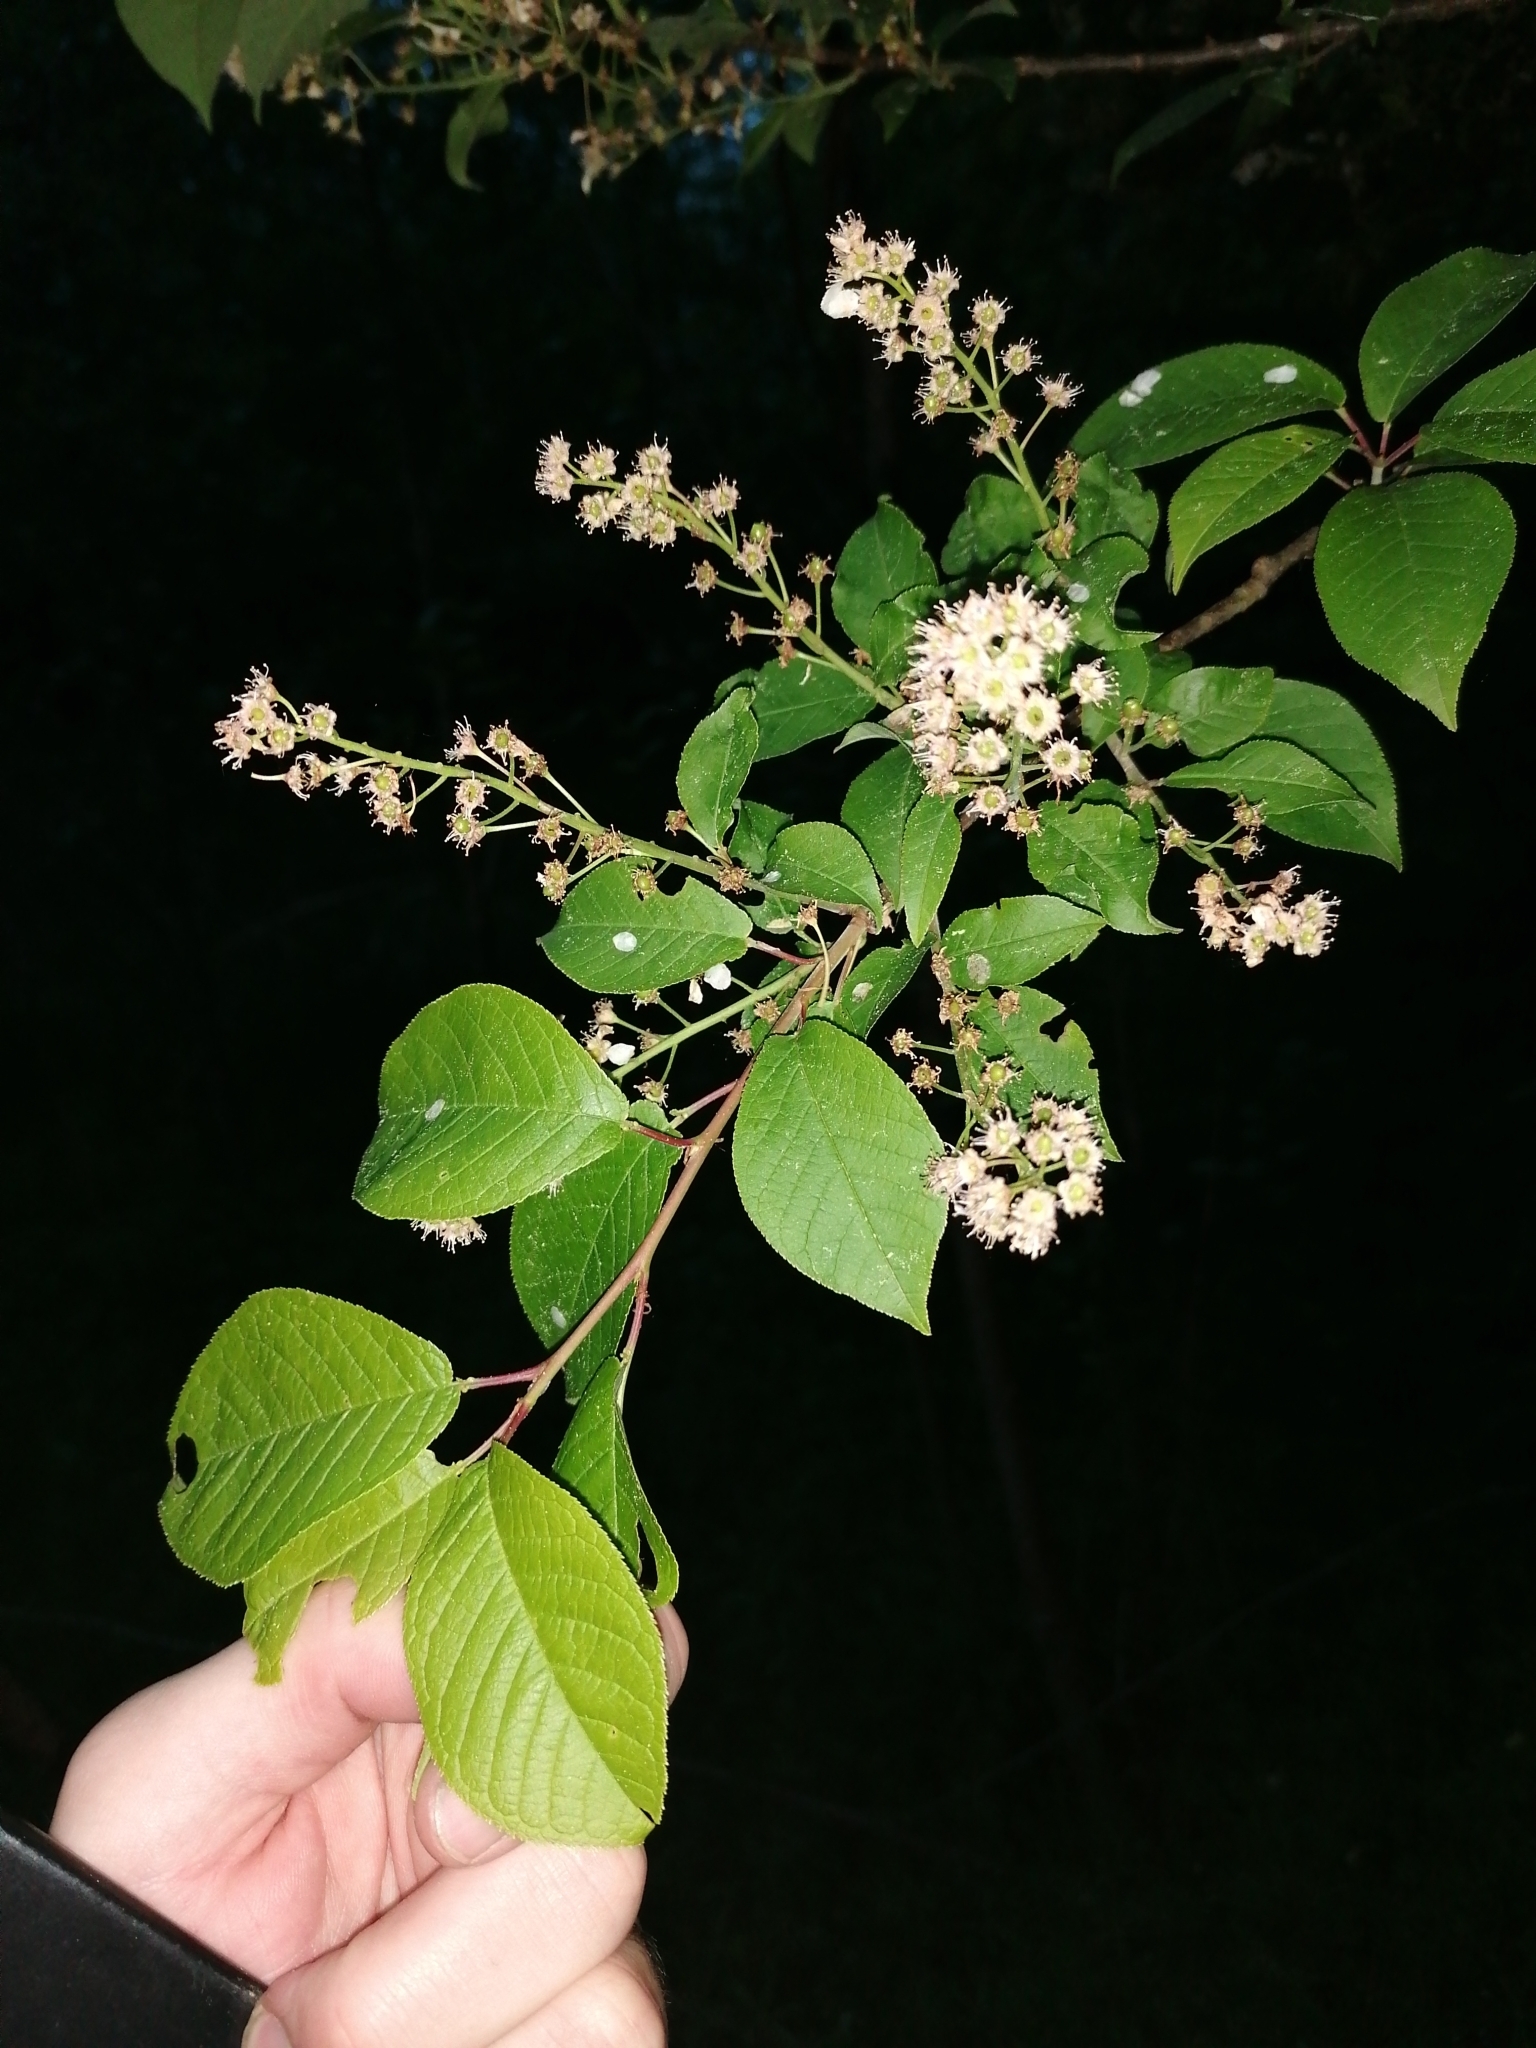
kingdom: Plantae
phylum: Tracheophyta
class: Magnoliopsida
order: Rosales
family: Rosaceae
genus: Prunus
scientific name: Prunus padus
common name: Bird cherry
